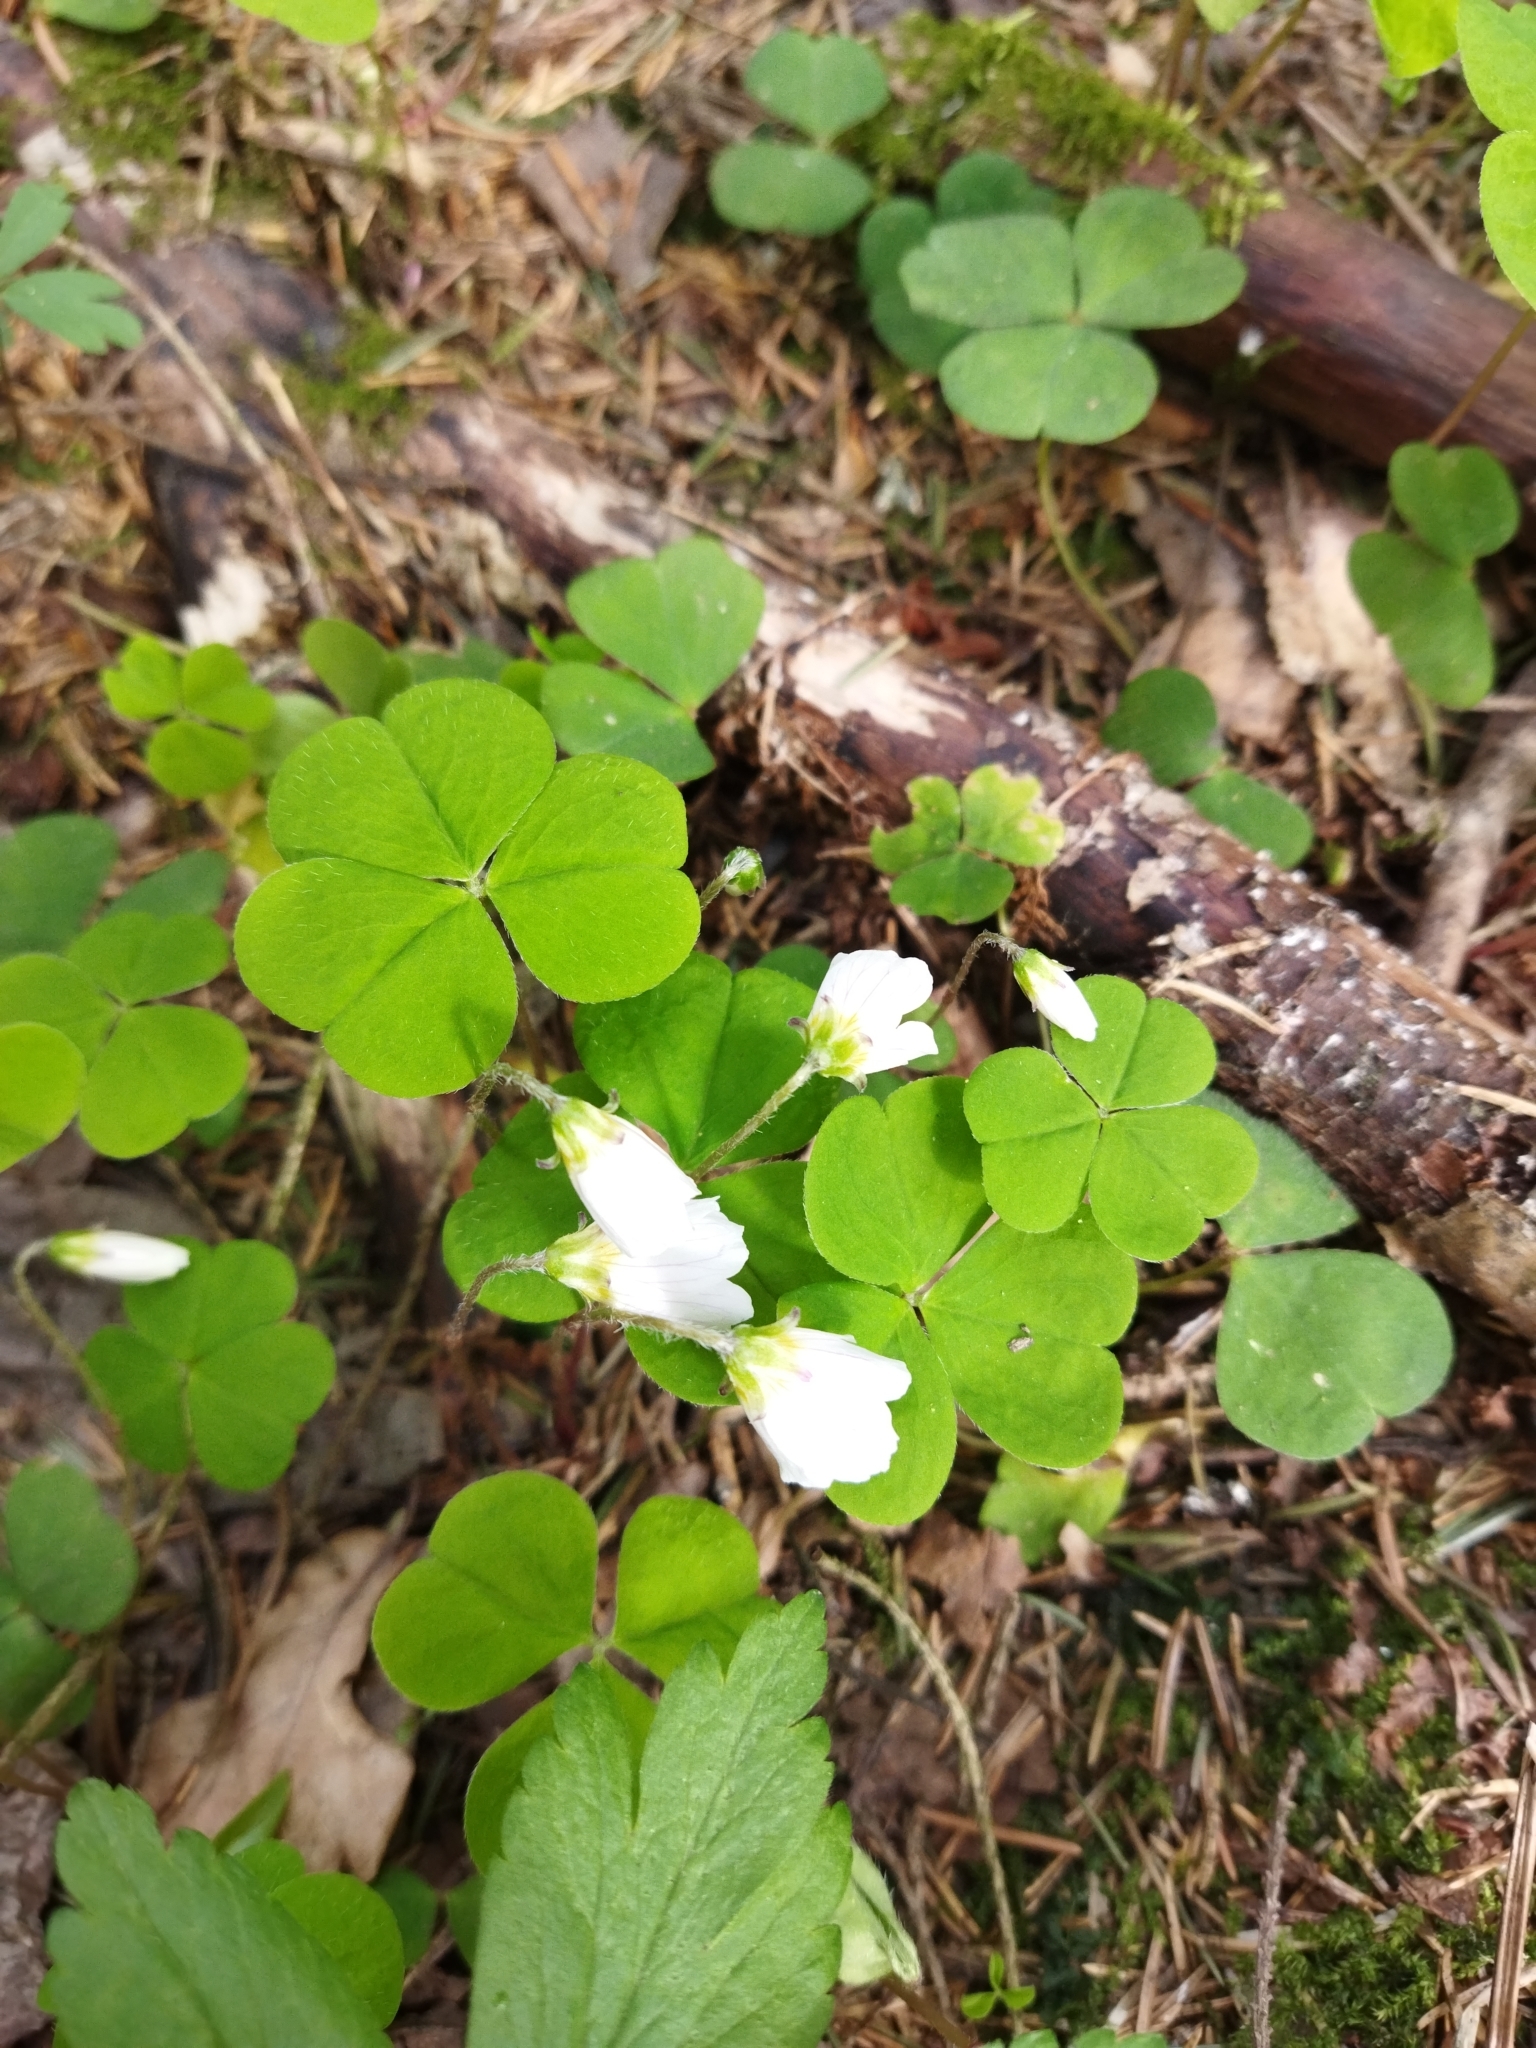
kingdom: Plantae
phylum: Tracheophyta
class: Magnoliopsida
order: Oxalidales
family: Oxalidaceae
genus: Oxalis
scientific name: Oxalis acetosella
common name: Wood-sorrel
